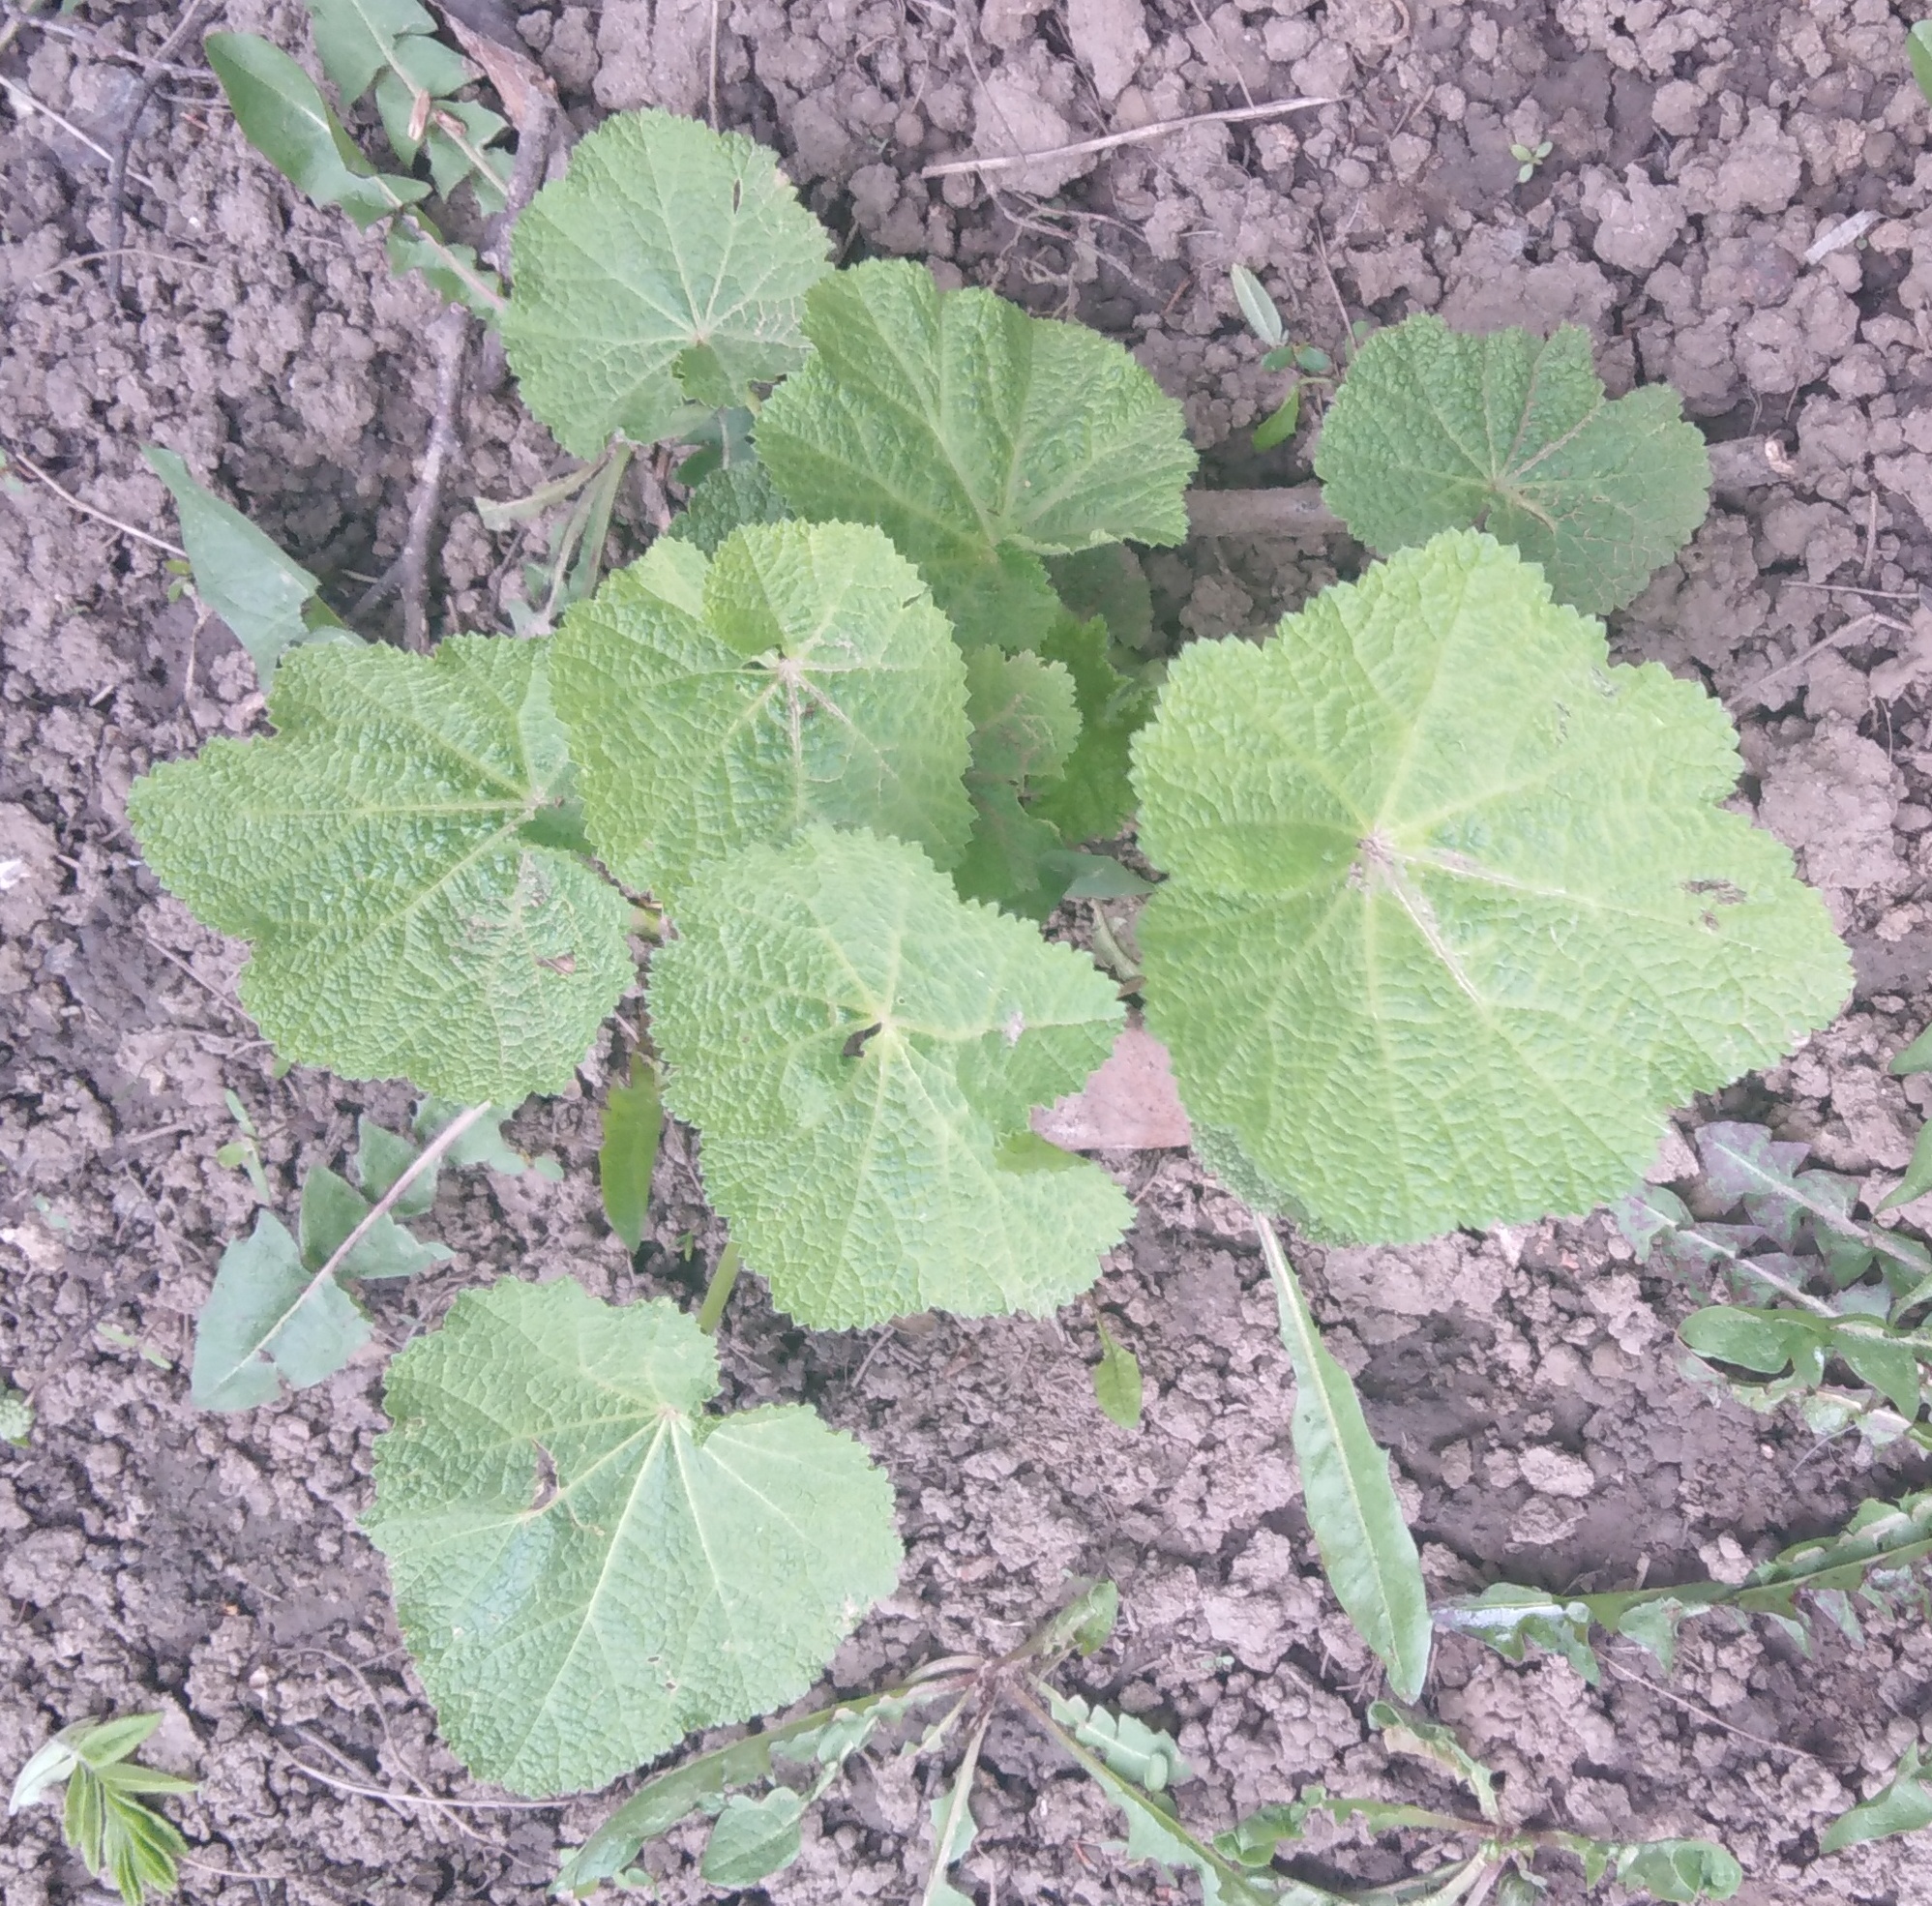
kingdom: Plantae
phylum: Tracheophyta
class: Magnoliopsida
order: Malvales
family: Malvaceae
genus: Alcea
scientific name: Alcea rosea
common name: Hollyhock
